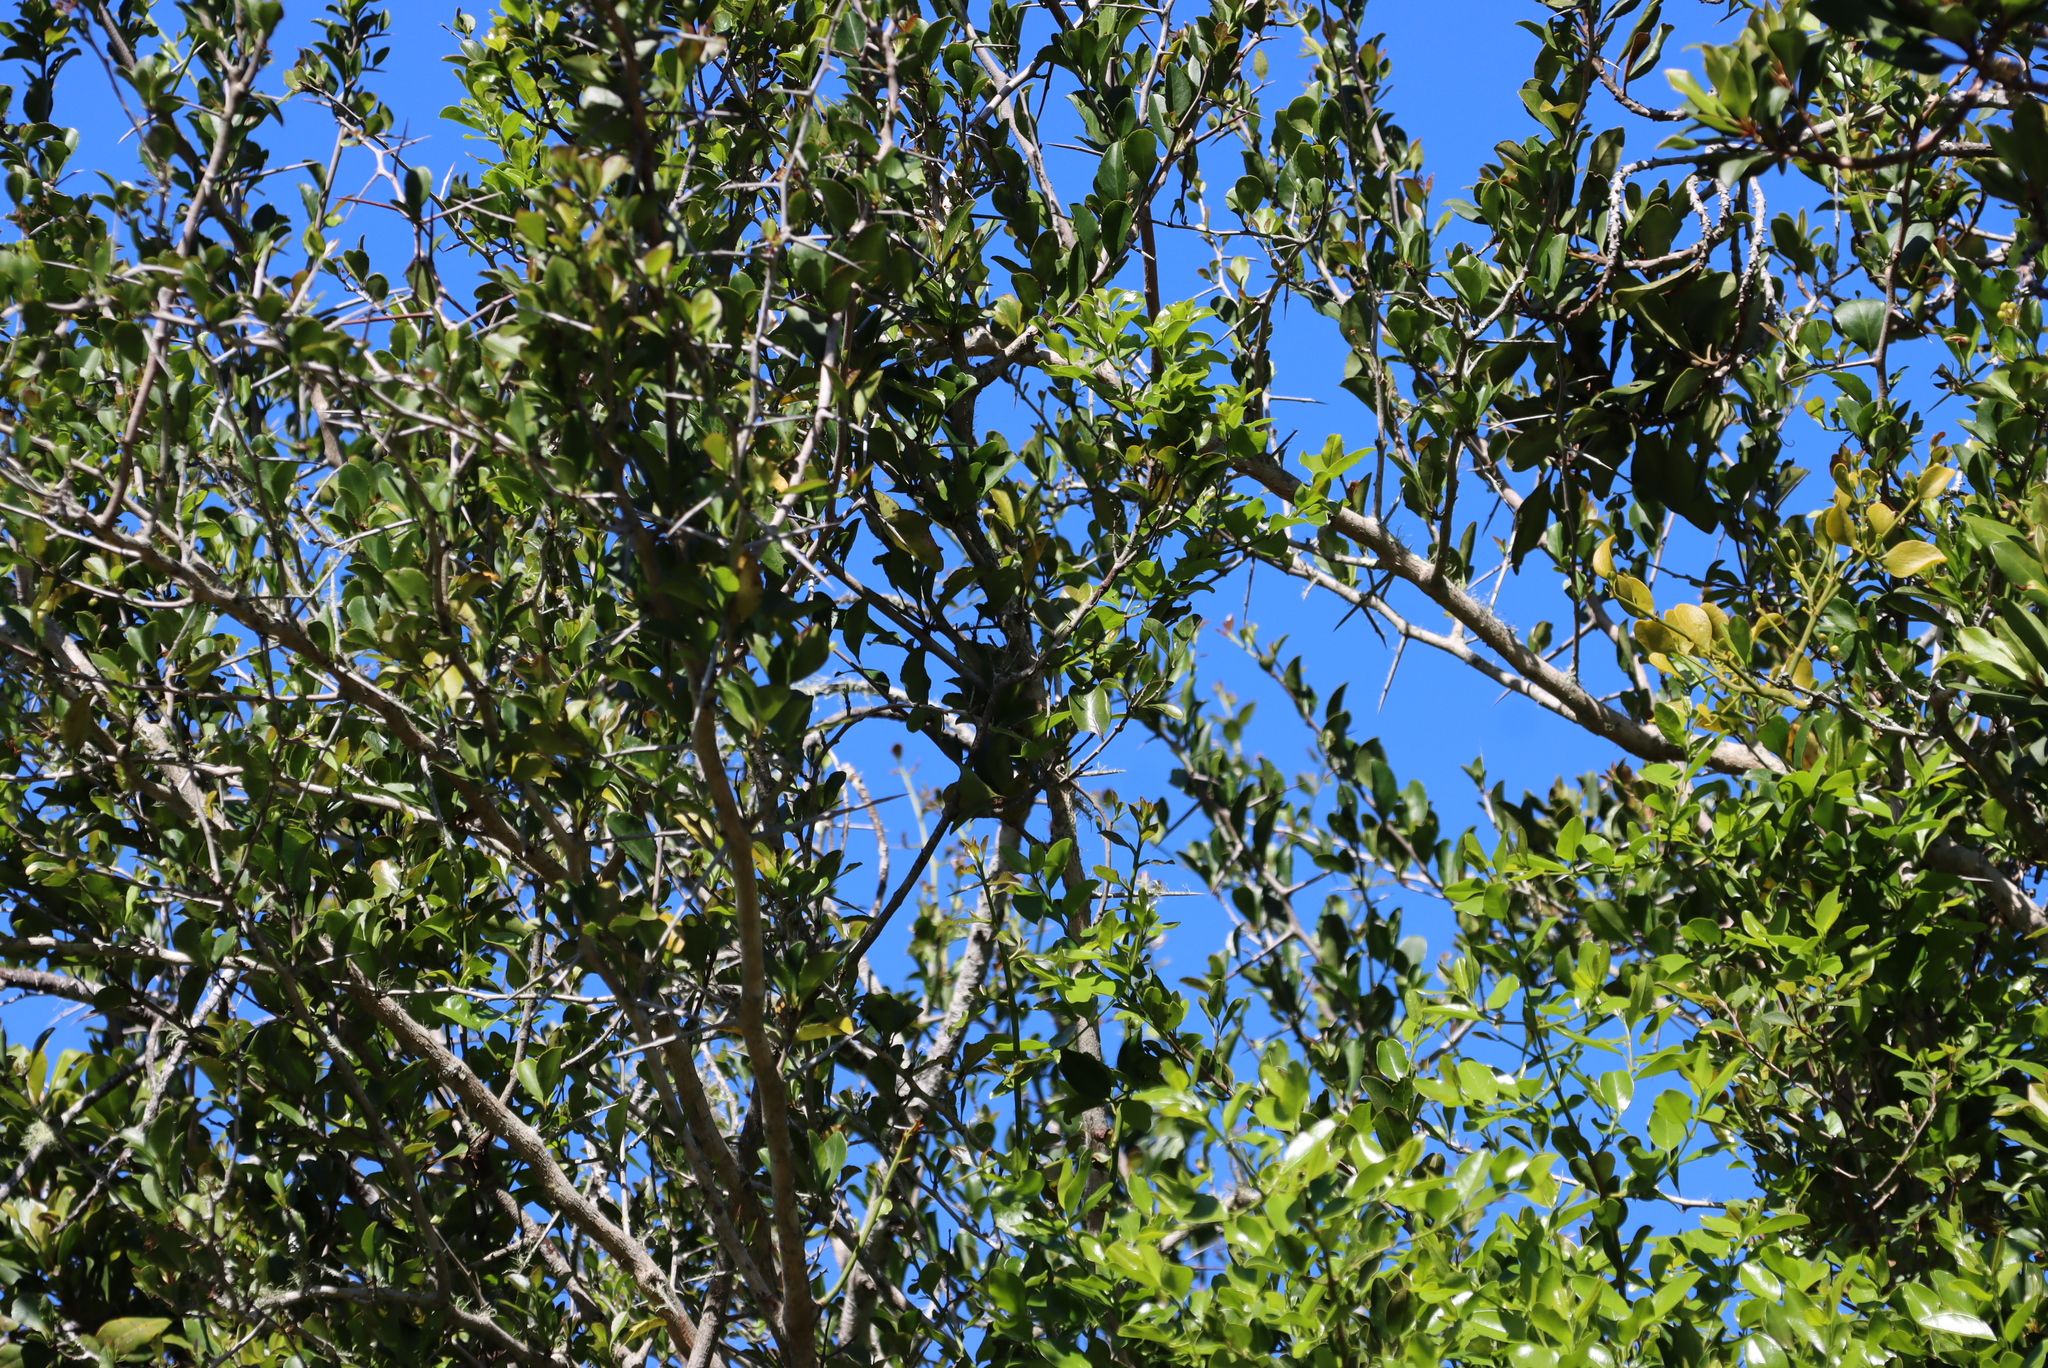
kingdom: Plantae
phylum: Tracheophyta
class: Magnoliopsida
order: Celastrales
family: Celastraceae
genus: Gymnosporia
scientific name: Gymnosporia nemorosa
